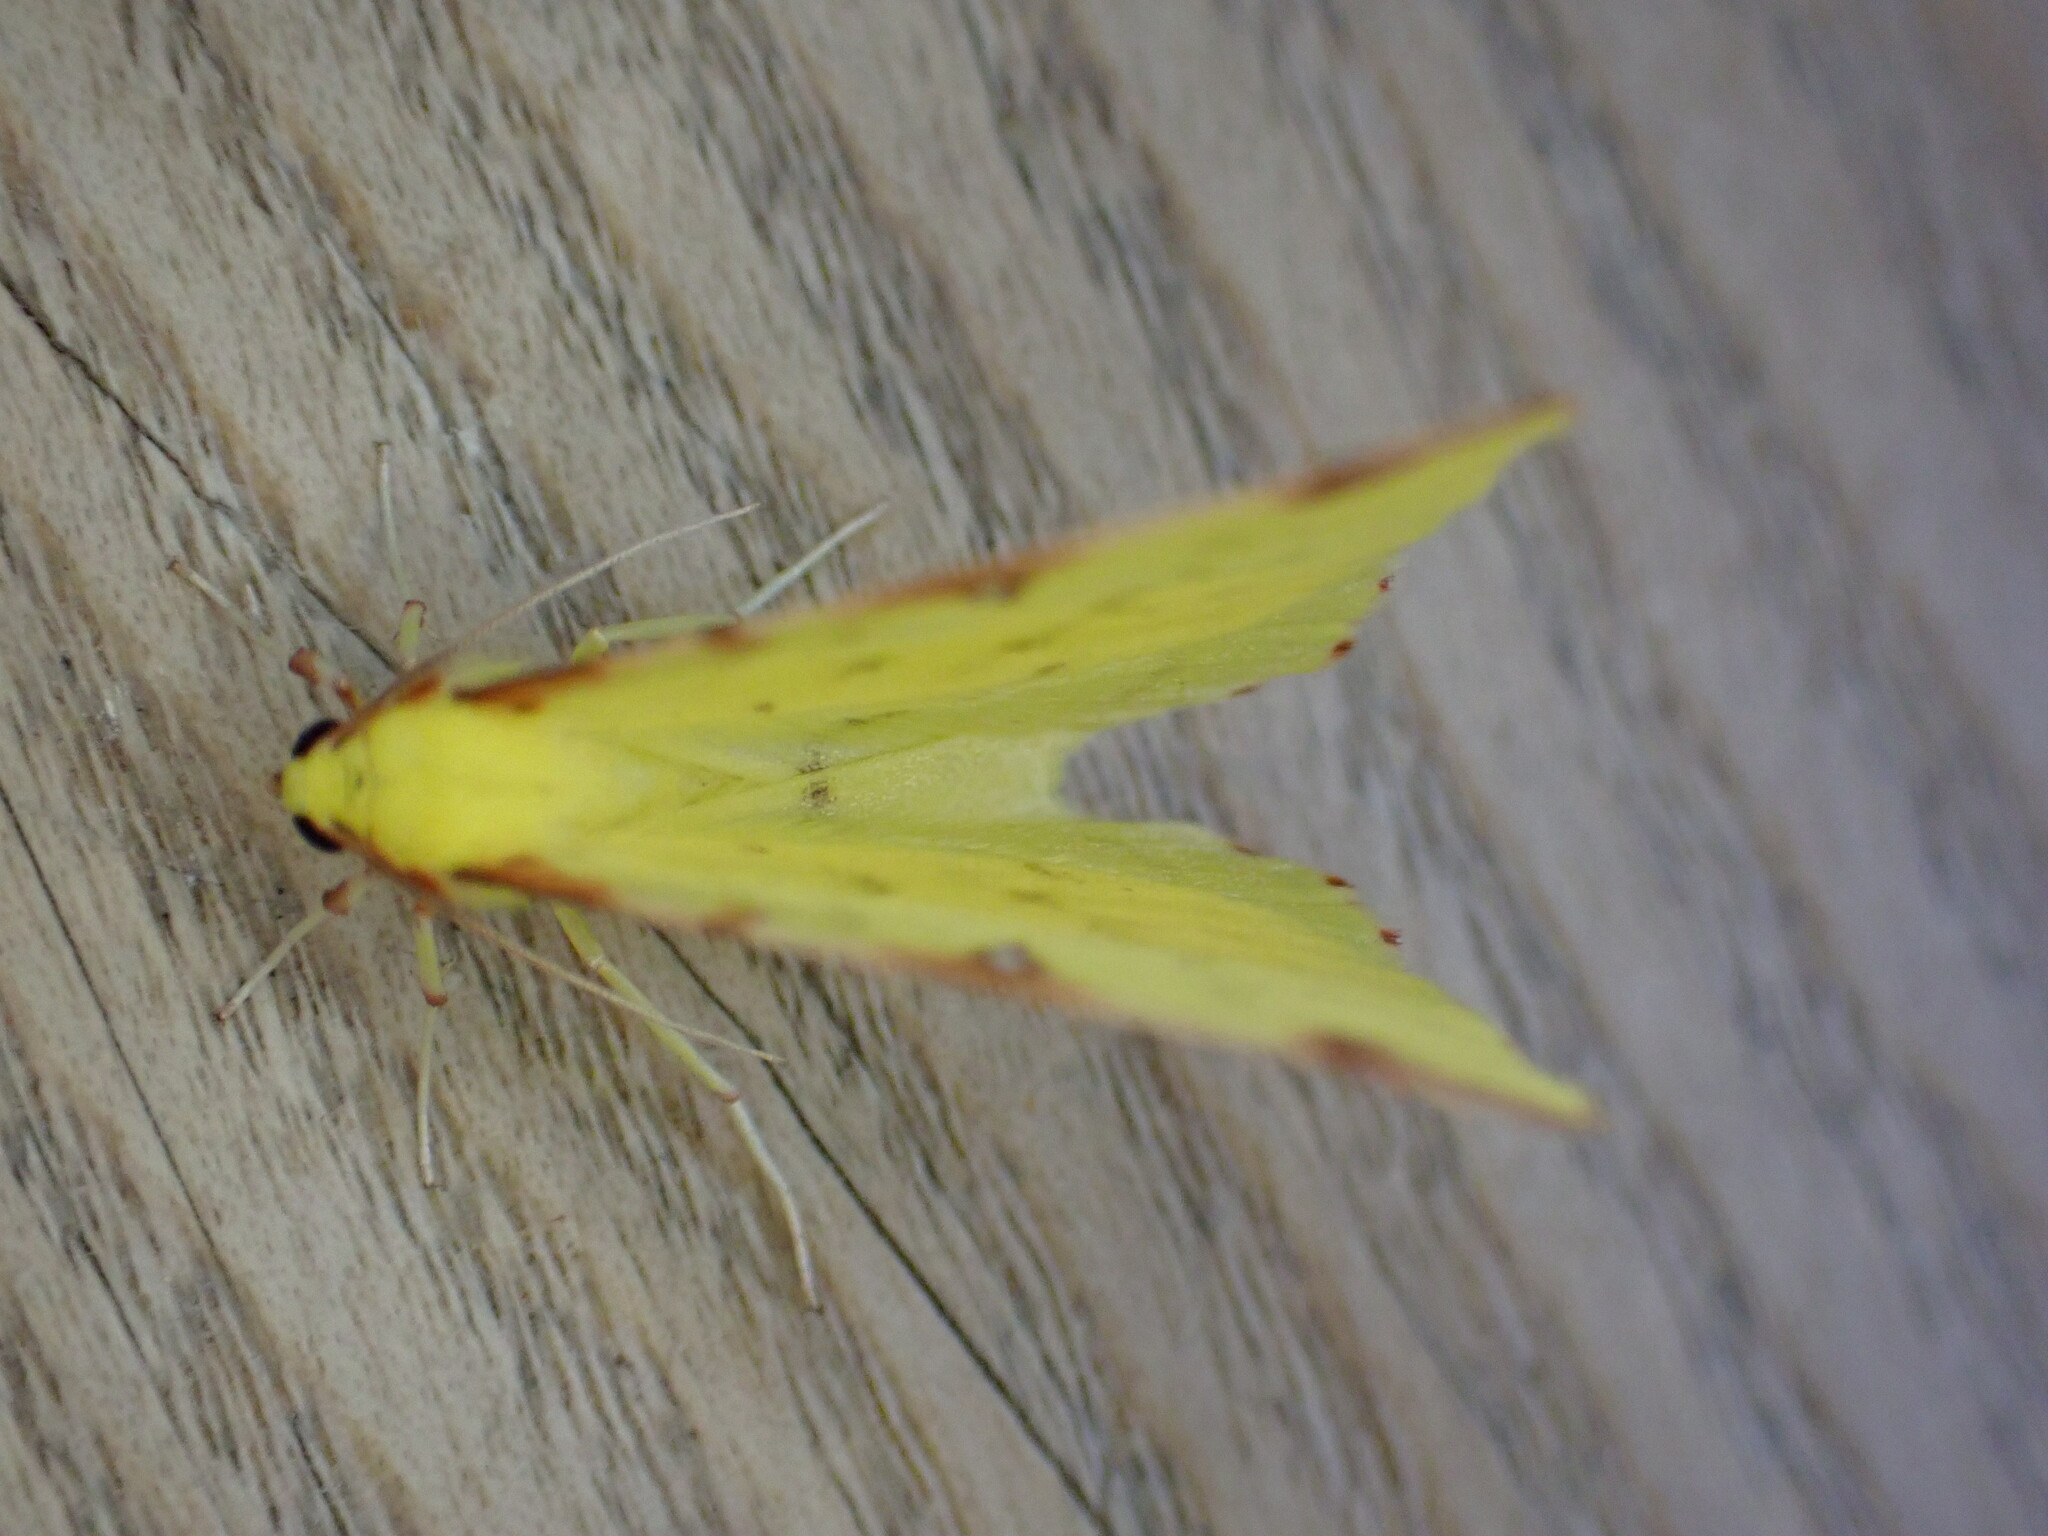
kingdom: Animalia
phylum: Arthropoda
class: Insecta
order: Lepidoptera
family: Geometridae
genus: Opisthograptis
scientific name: Opisthograptis luteolata
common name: Brimstone moth
